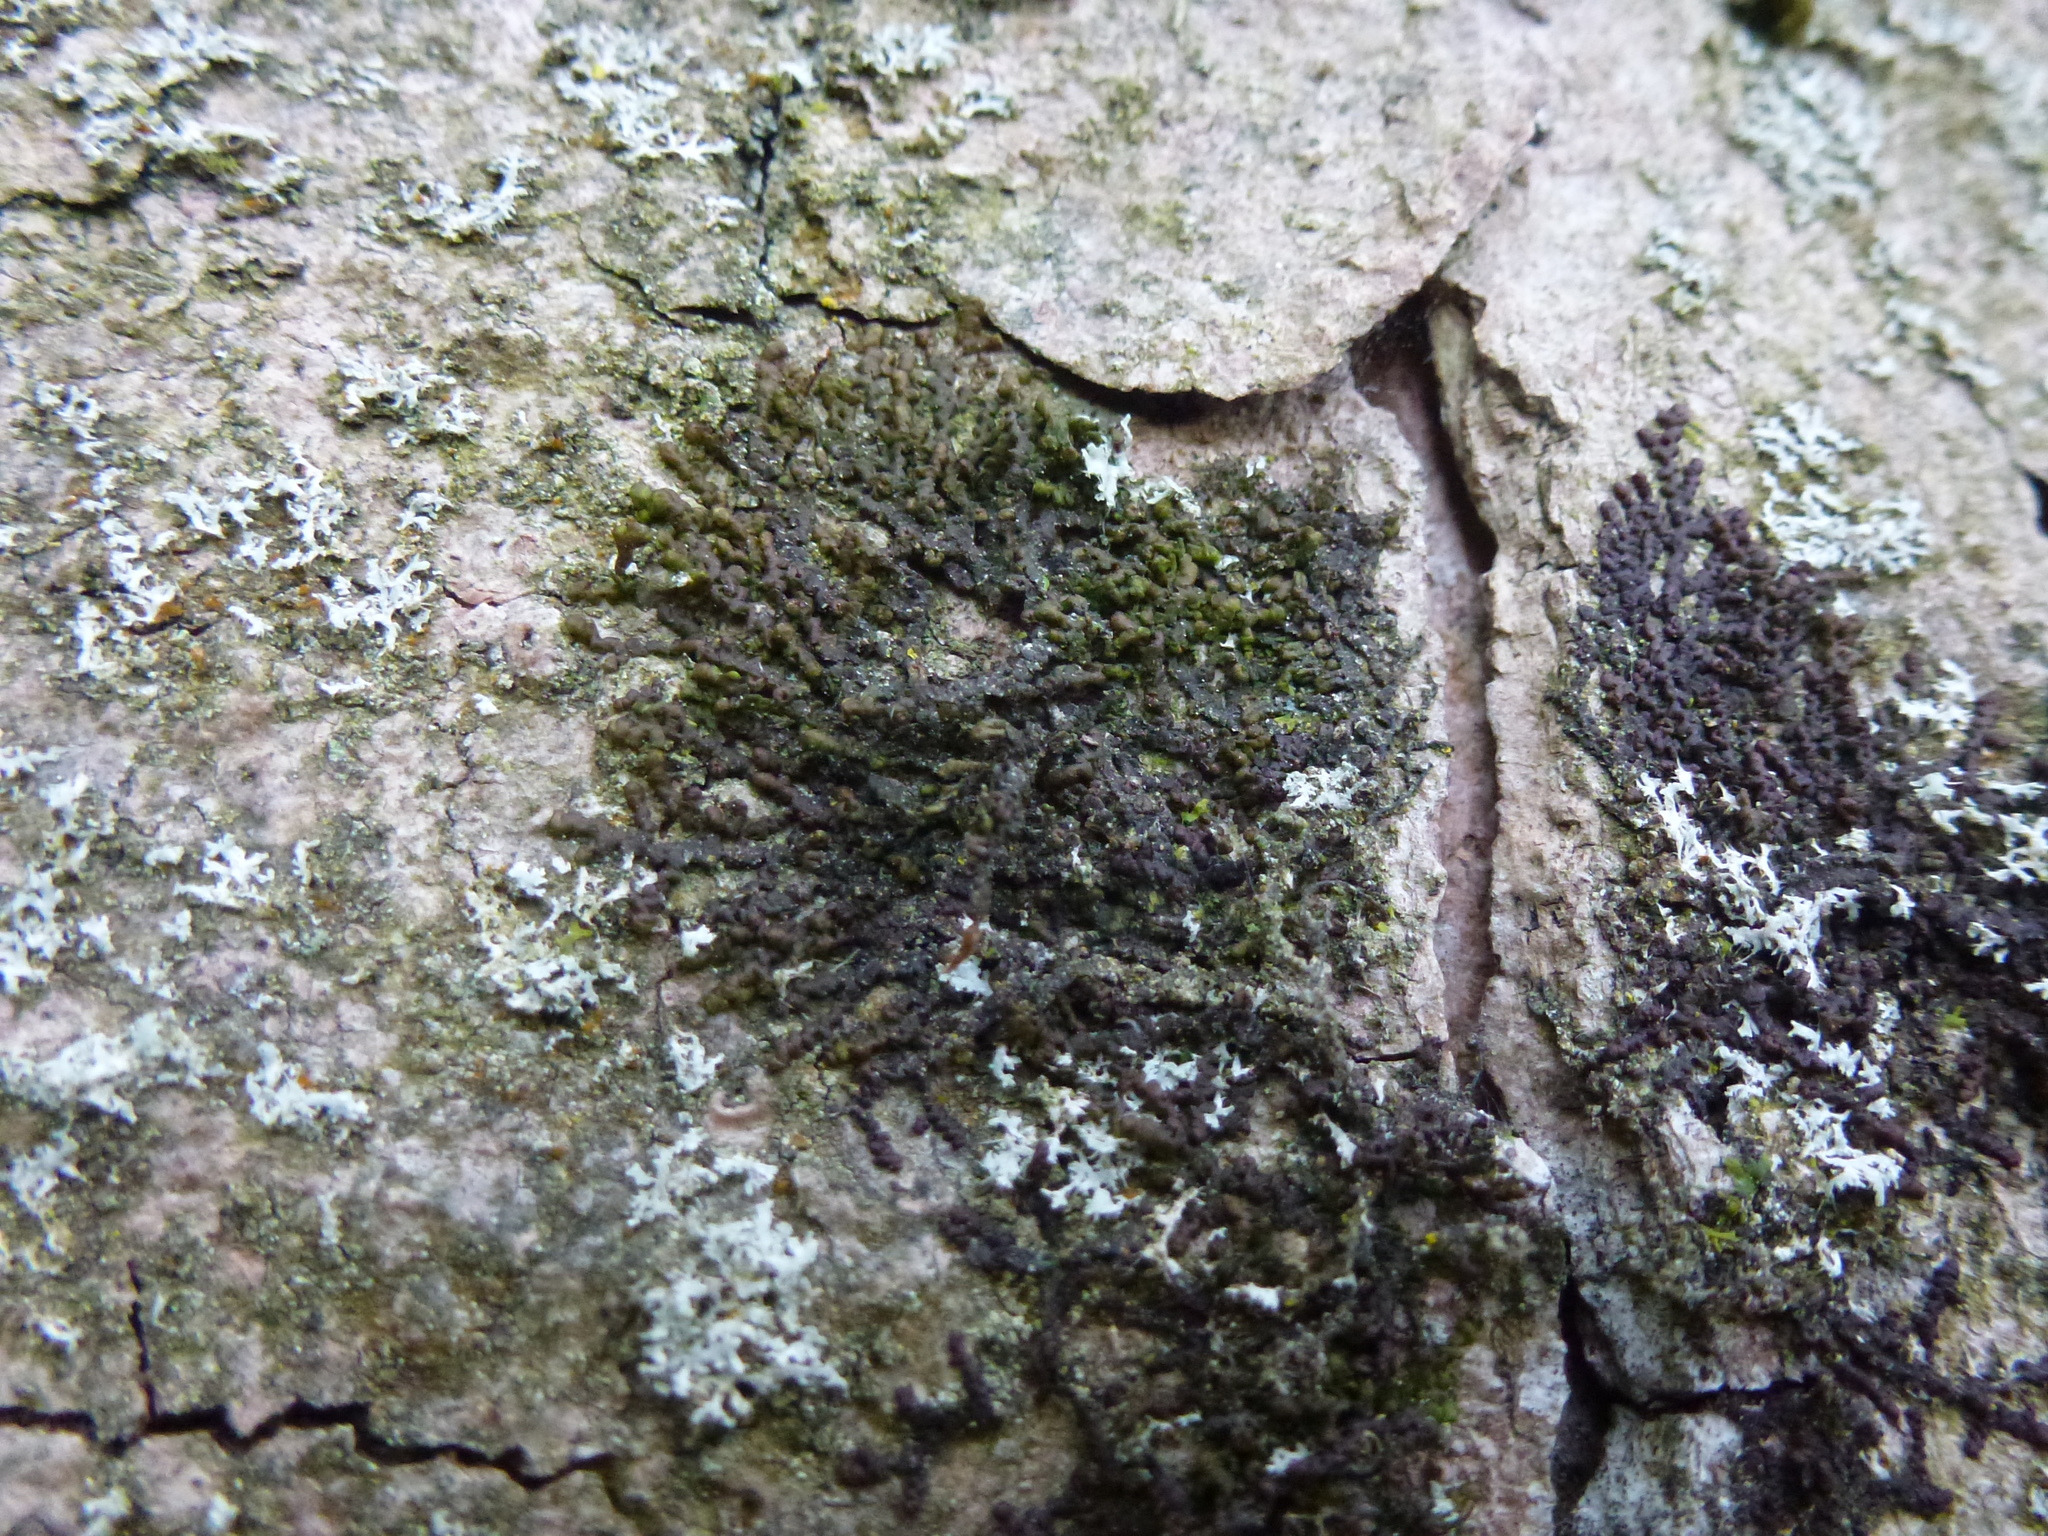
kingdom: Plantae
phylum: Marchantiophyta
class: Jungermanniopsida
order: Porellales
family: Frullaniaceae
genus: Frullania
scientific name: Frullania dilatata
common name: Dilated scalewort
